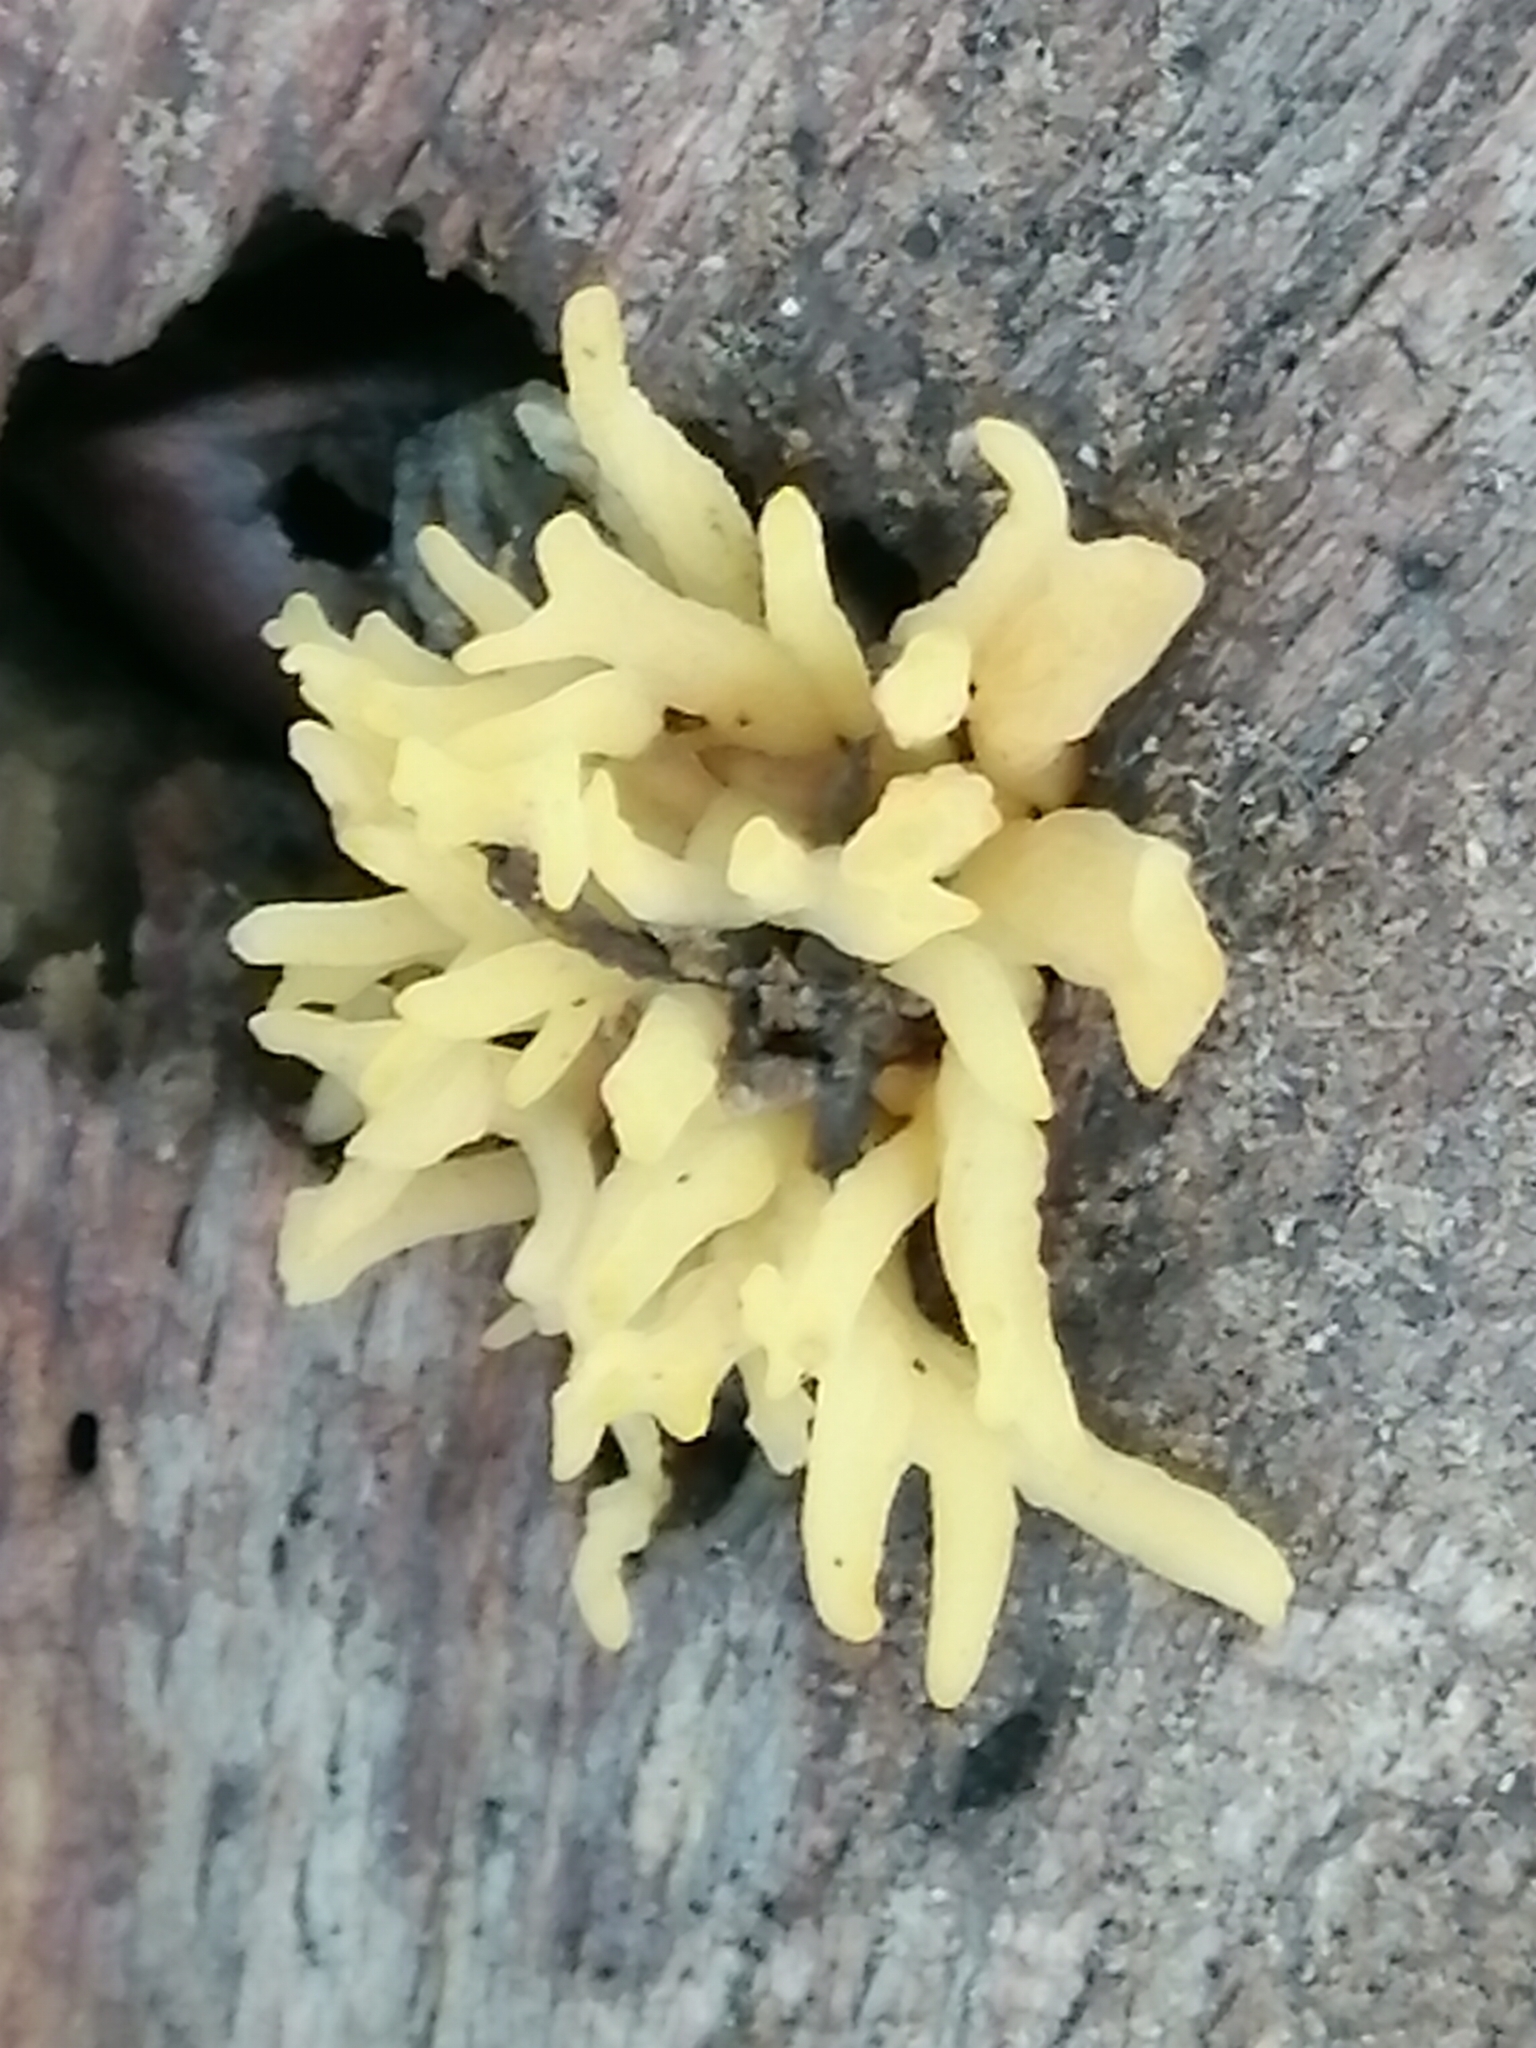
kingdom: Fungi
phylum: Basidiomycota
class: Dacrymycetes
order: Dacrymycetales
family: Dacrymycetaceae
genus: Calocera
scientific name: Calocera cornea
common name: Small stagshorn
